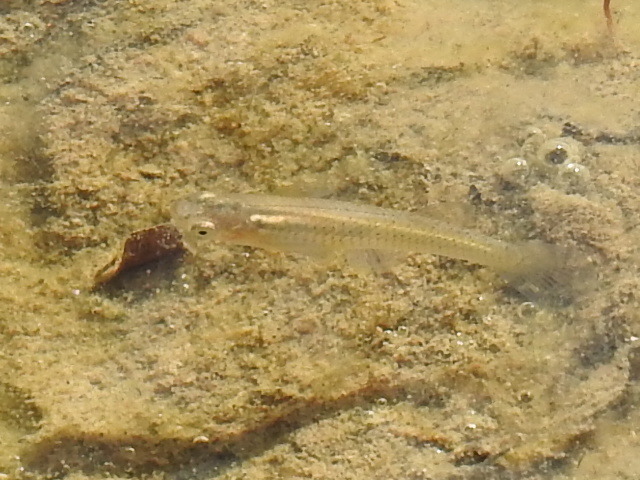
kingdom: Animalia
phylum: Chordata
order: Cyprinodontiformes
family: Poeciliidae
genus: Gambusia
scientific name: Gambusia affinis
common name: Mosquitofish
